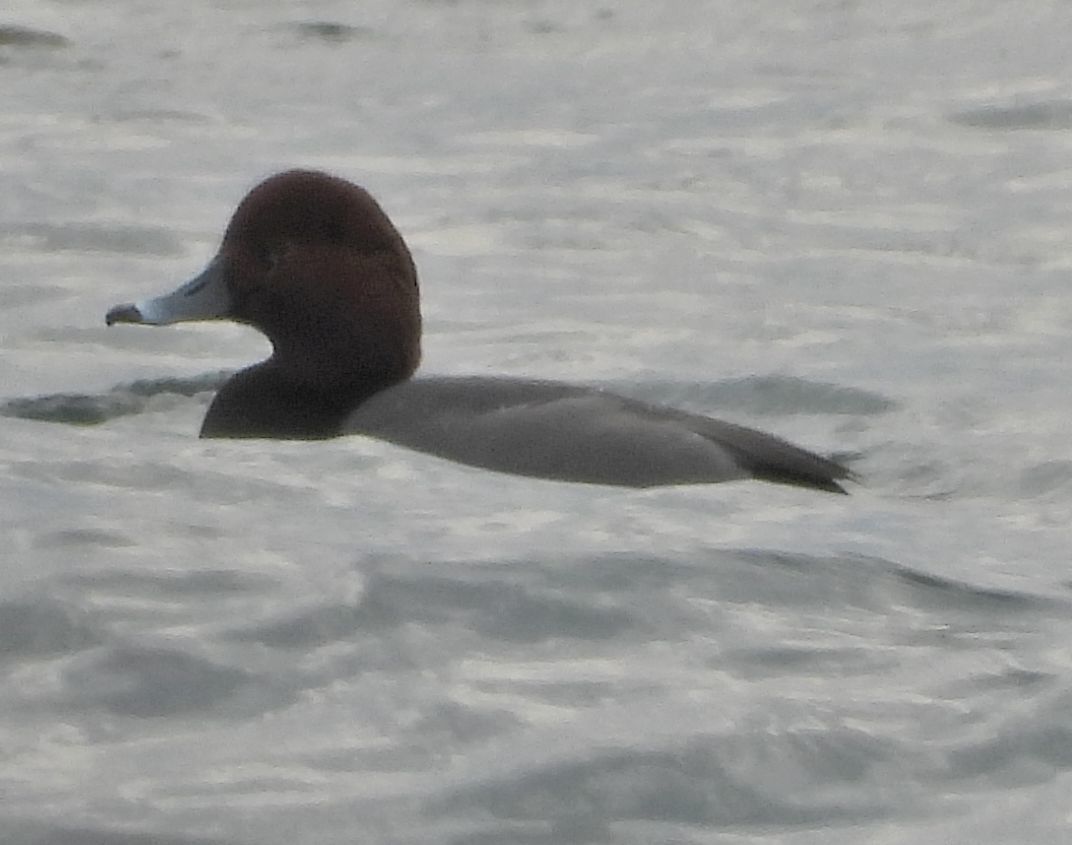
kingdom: Animalia
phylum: Chordata
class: Aves
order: Anseriformes
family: Anatidae
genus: Aythya
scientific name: Aythya americana
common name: Redhead
